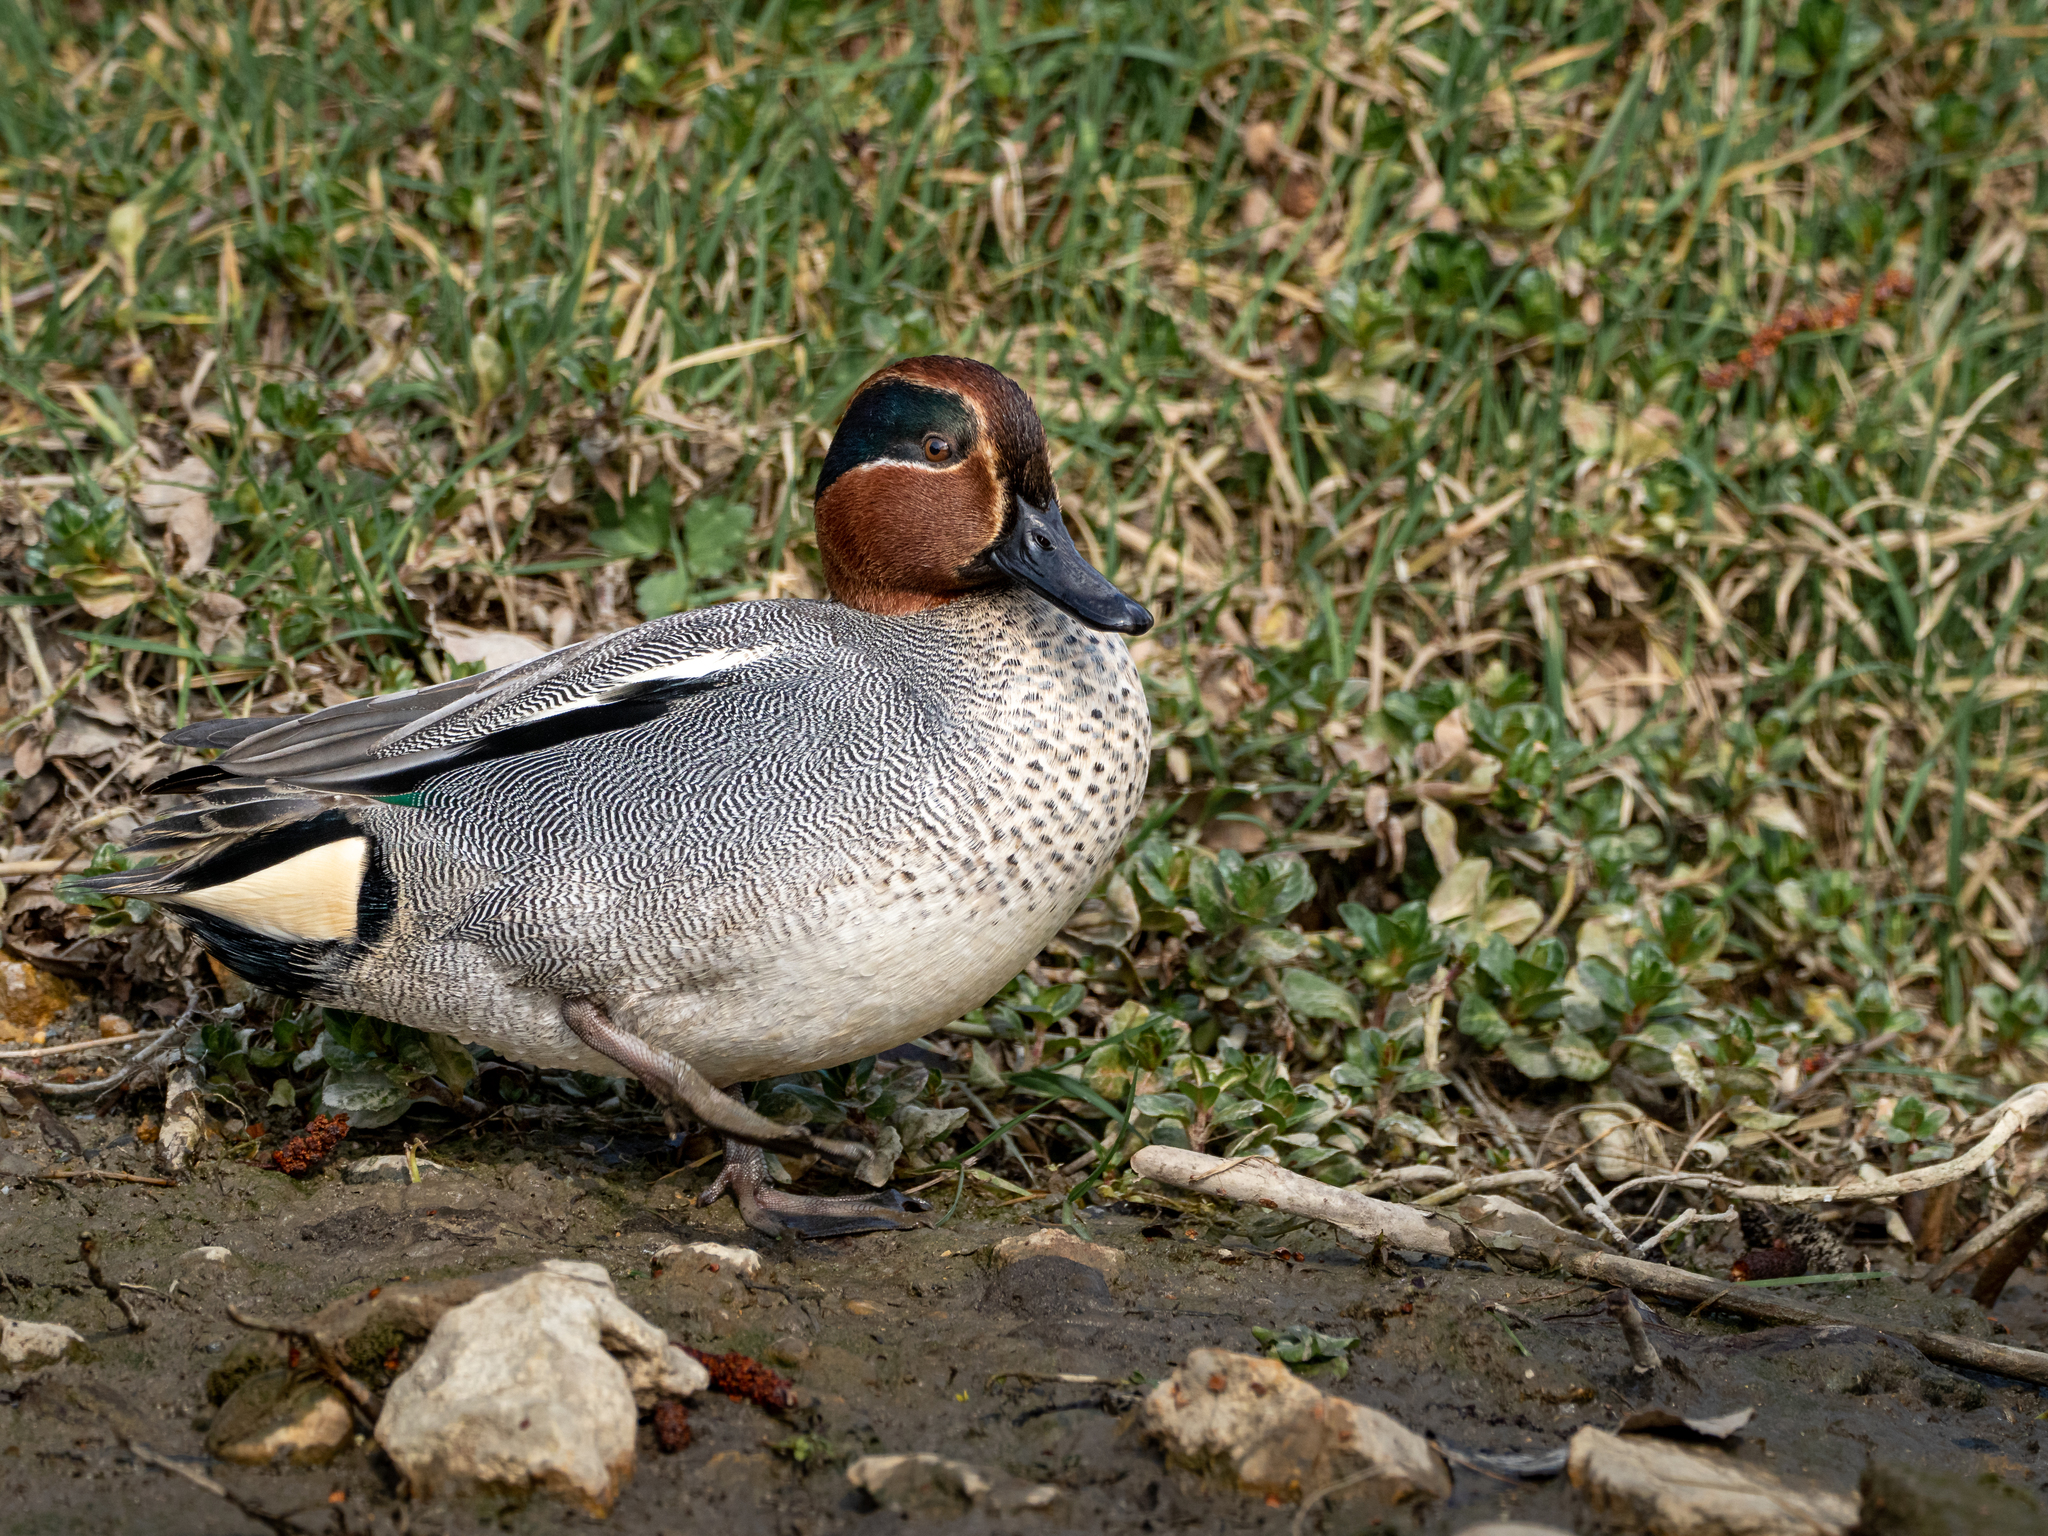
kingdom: Animalia
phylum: Chordata
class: Aves
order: Anseriformes
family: Anatidae
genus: Anas
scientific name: Anas crecca
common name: Eurasian teal
